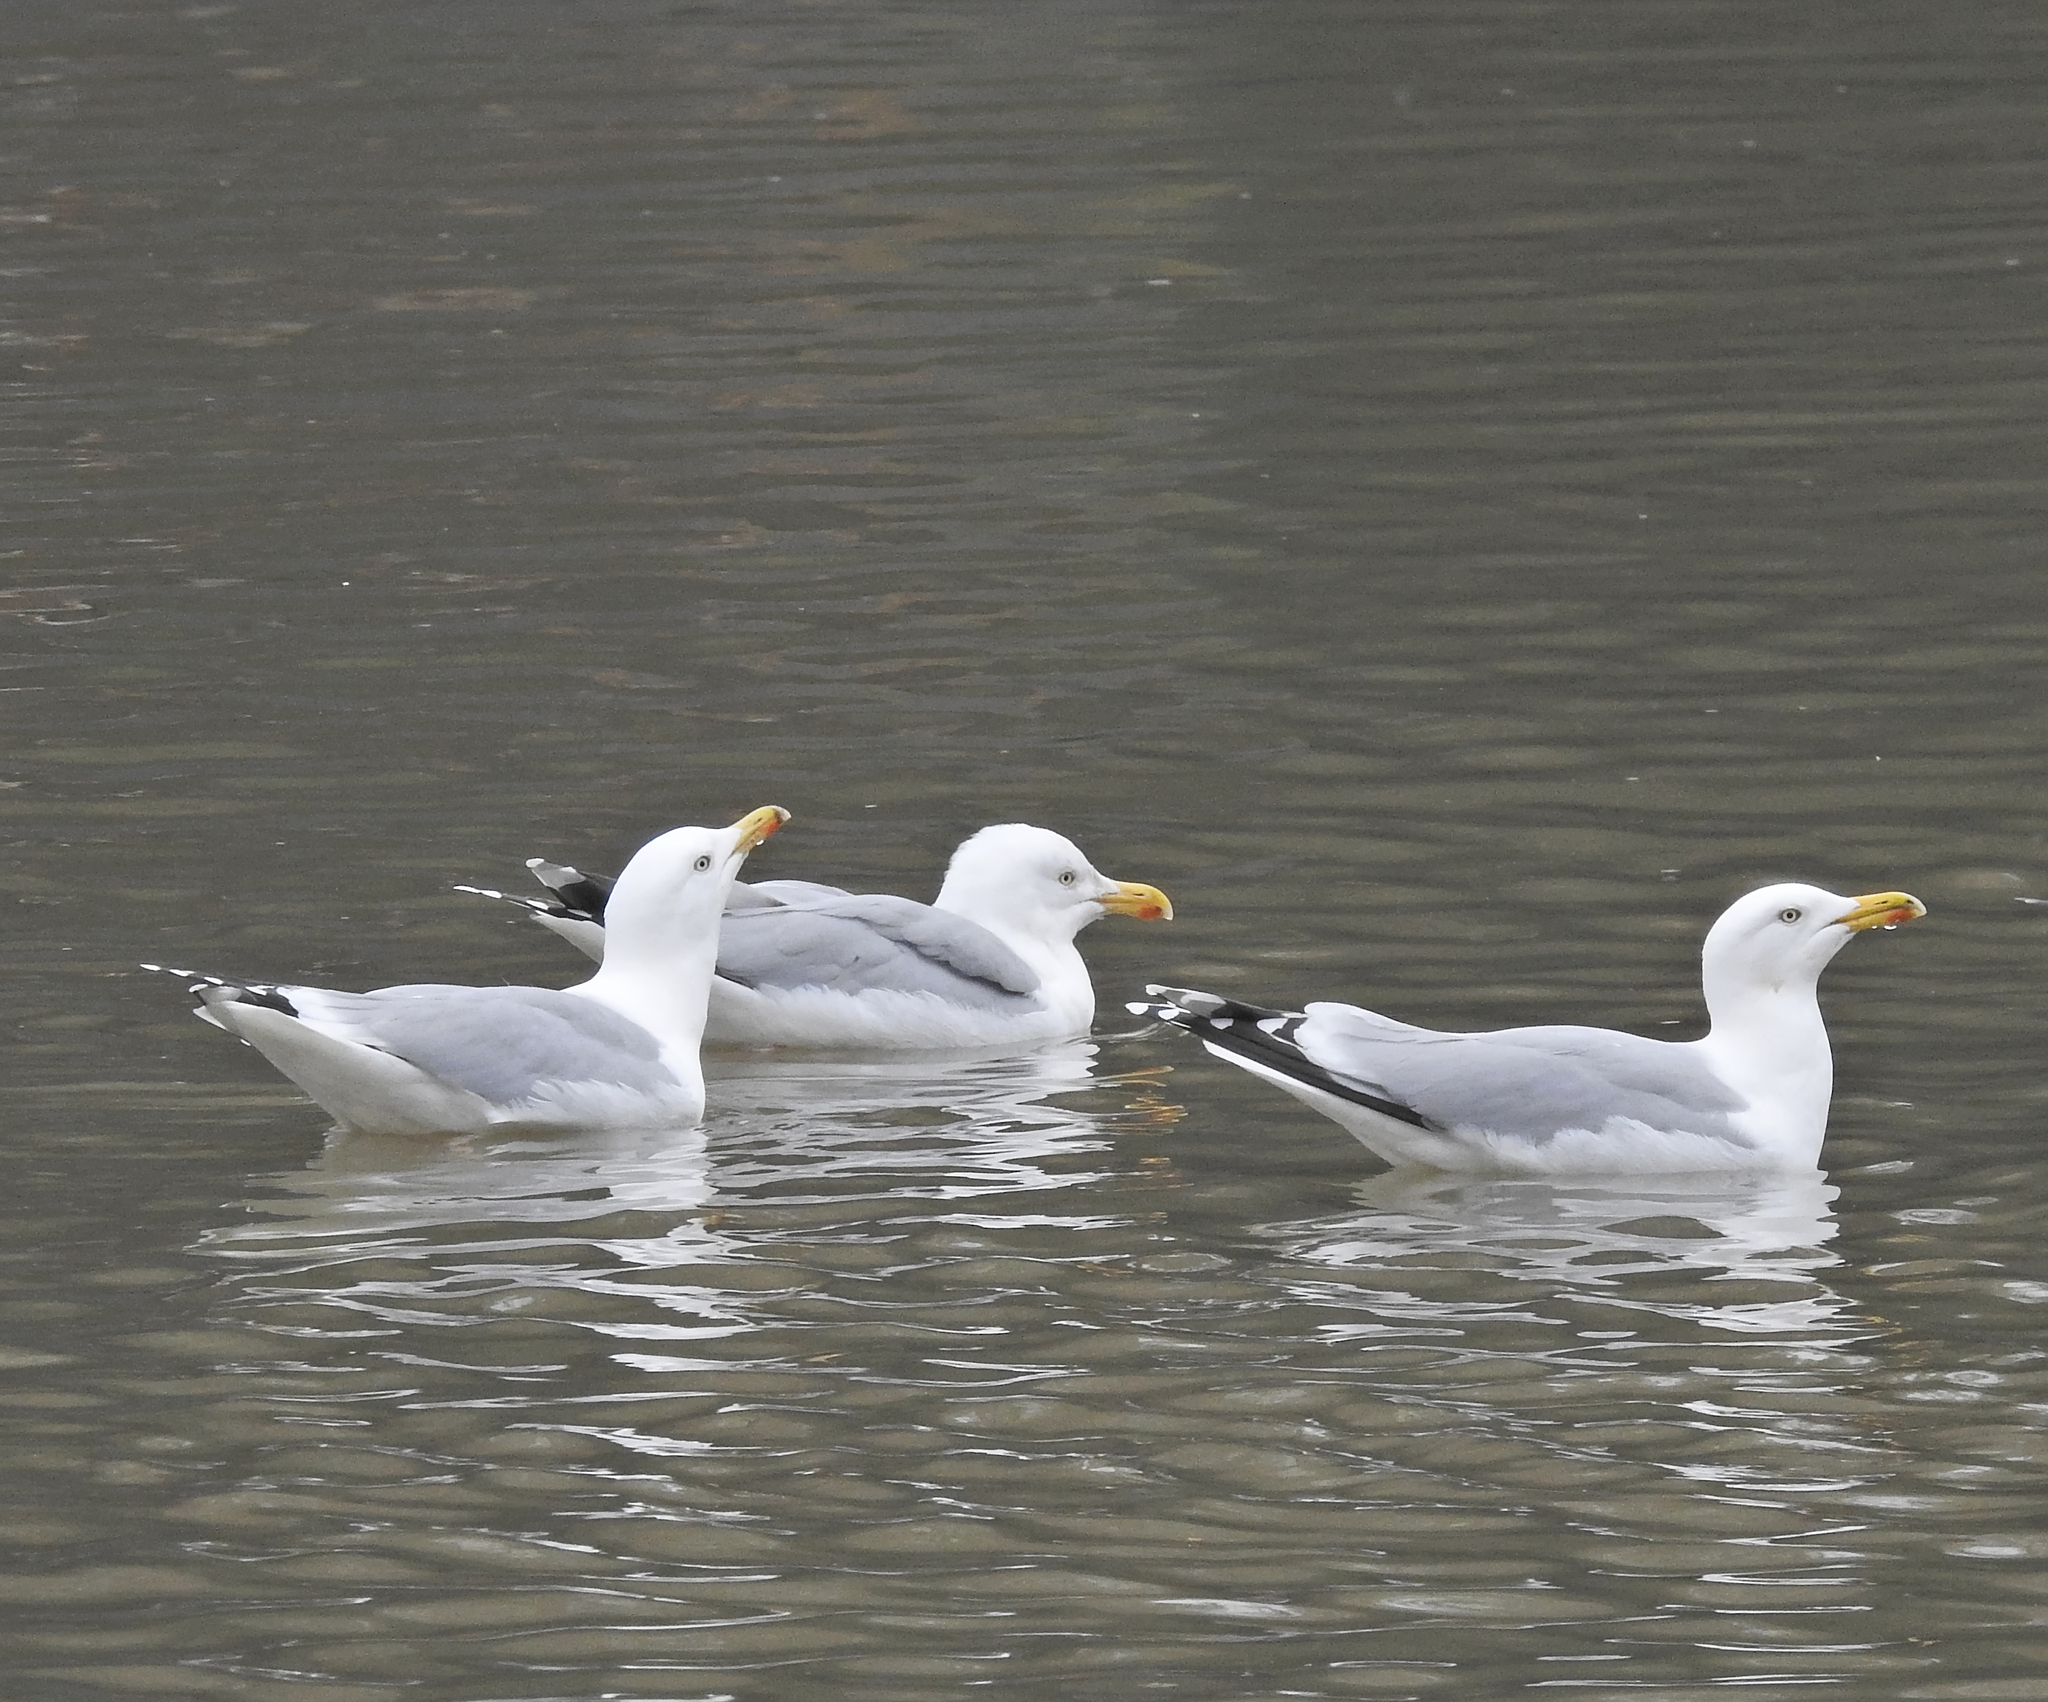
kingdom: Animalia
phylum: Chordata
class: Aves
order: Charadriiformes
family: Laridae
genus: Larus
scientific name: Larus argentatus
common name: Herring gull
